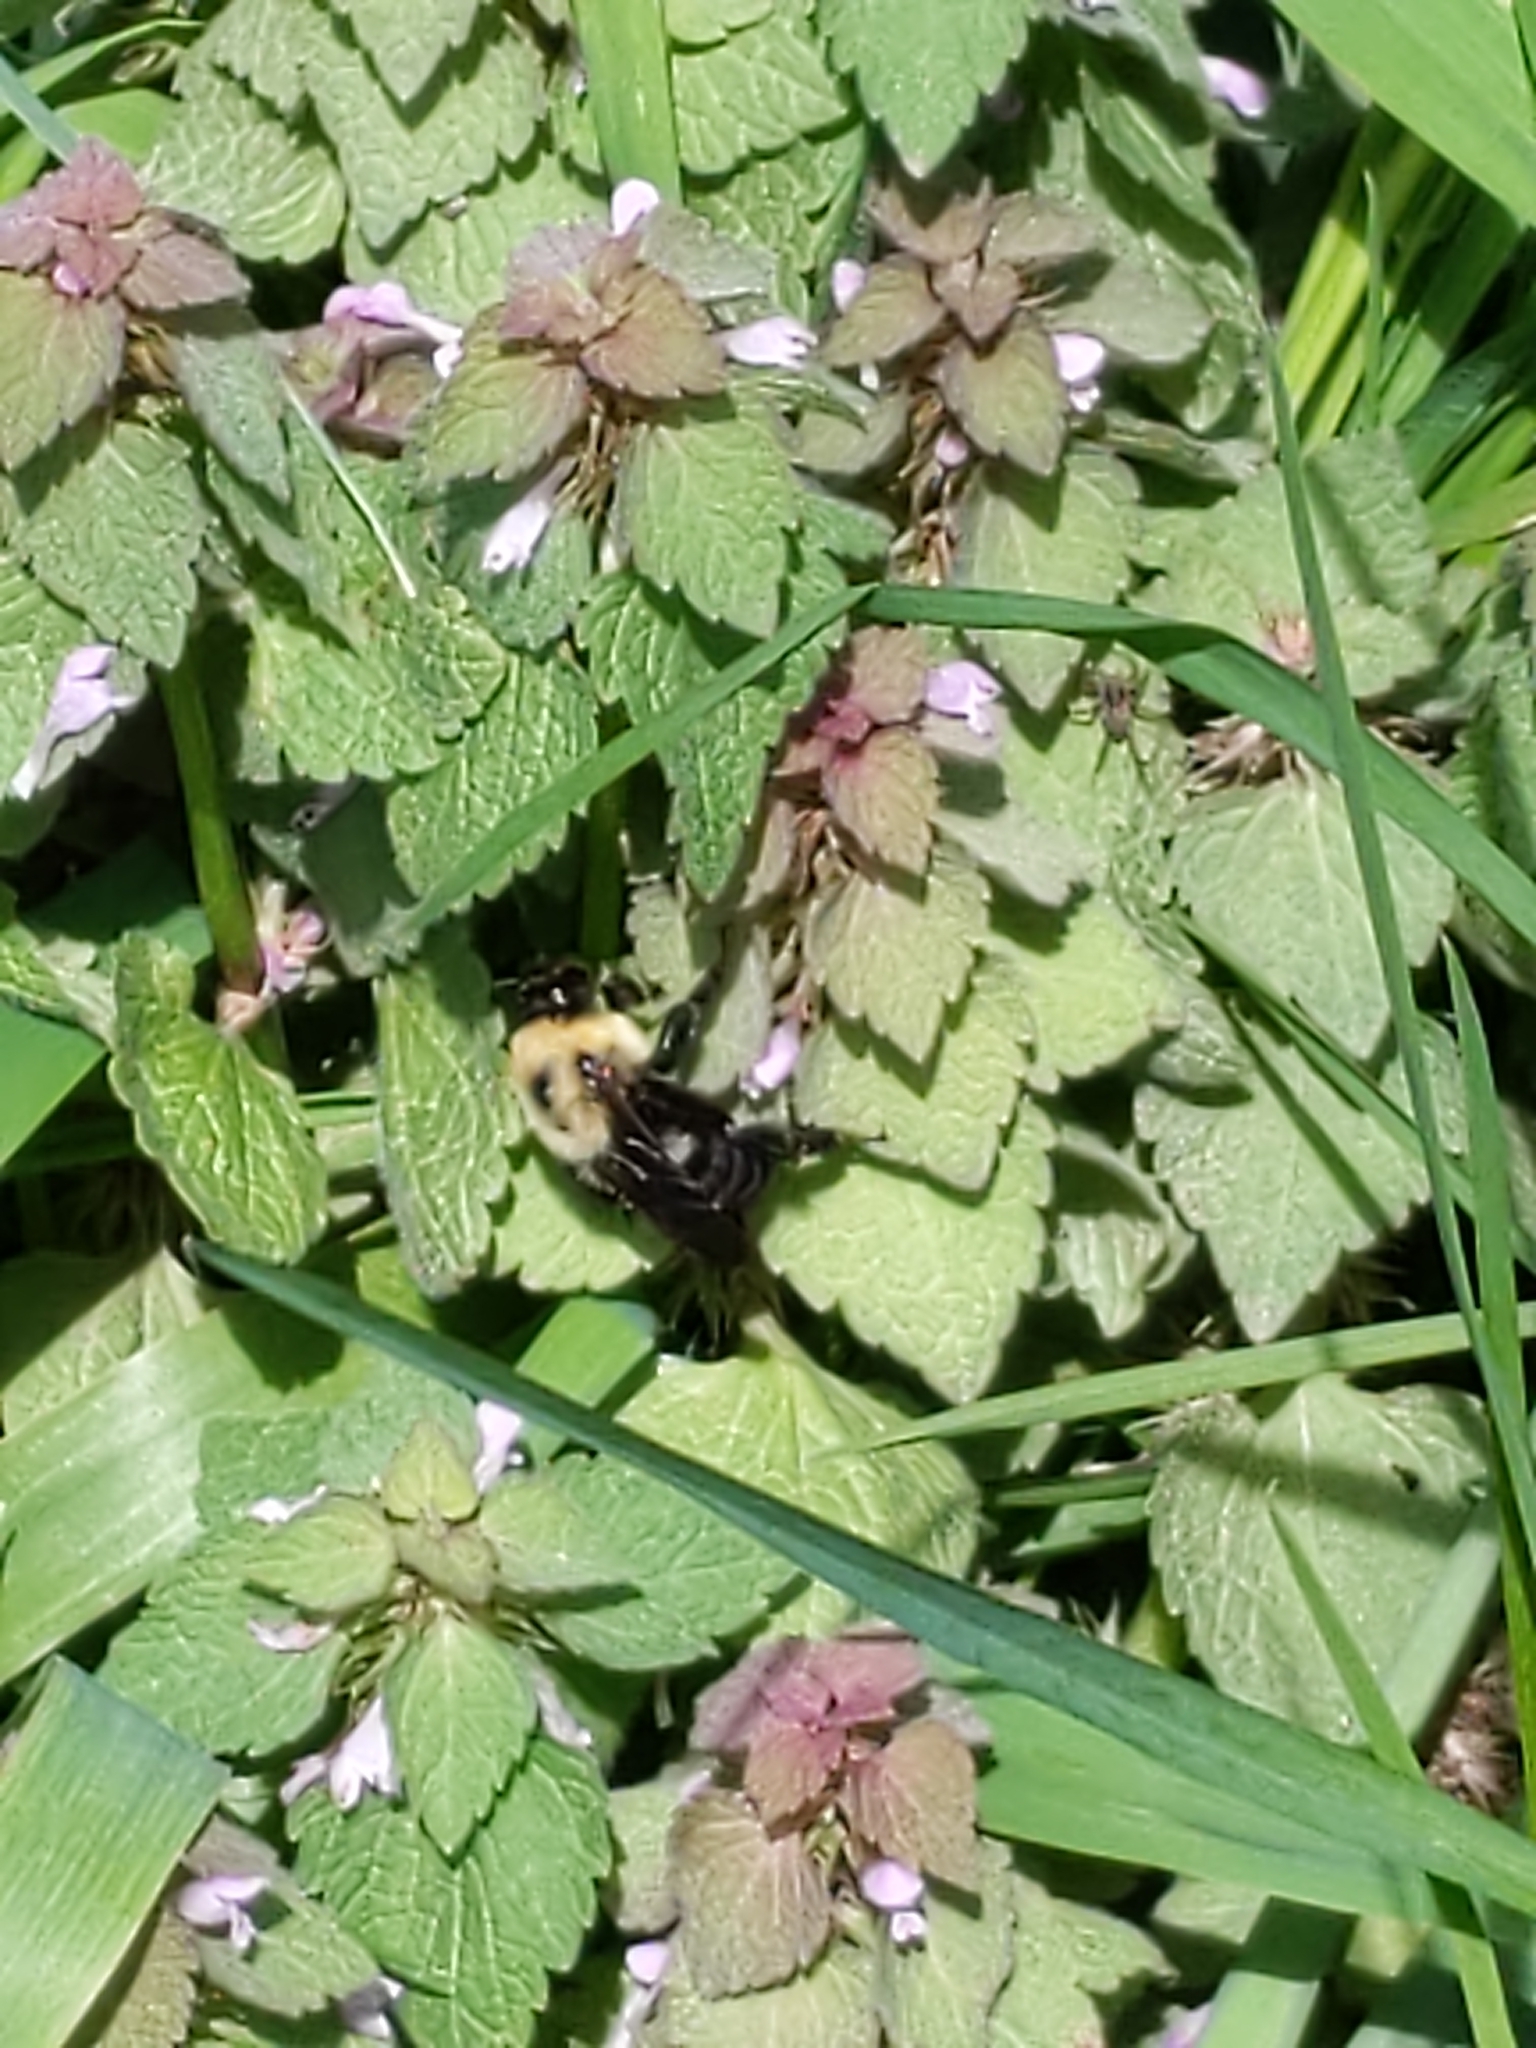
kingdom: Animalia
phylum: Arthropoda
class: Insecta
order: Hymenoptera
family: Apidae
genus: Bombus
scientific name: Bombus bimaculatus
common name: Two-spotted bumble bee
